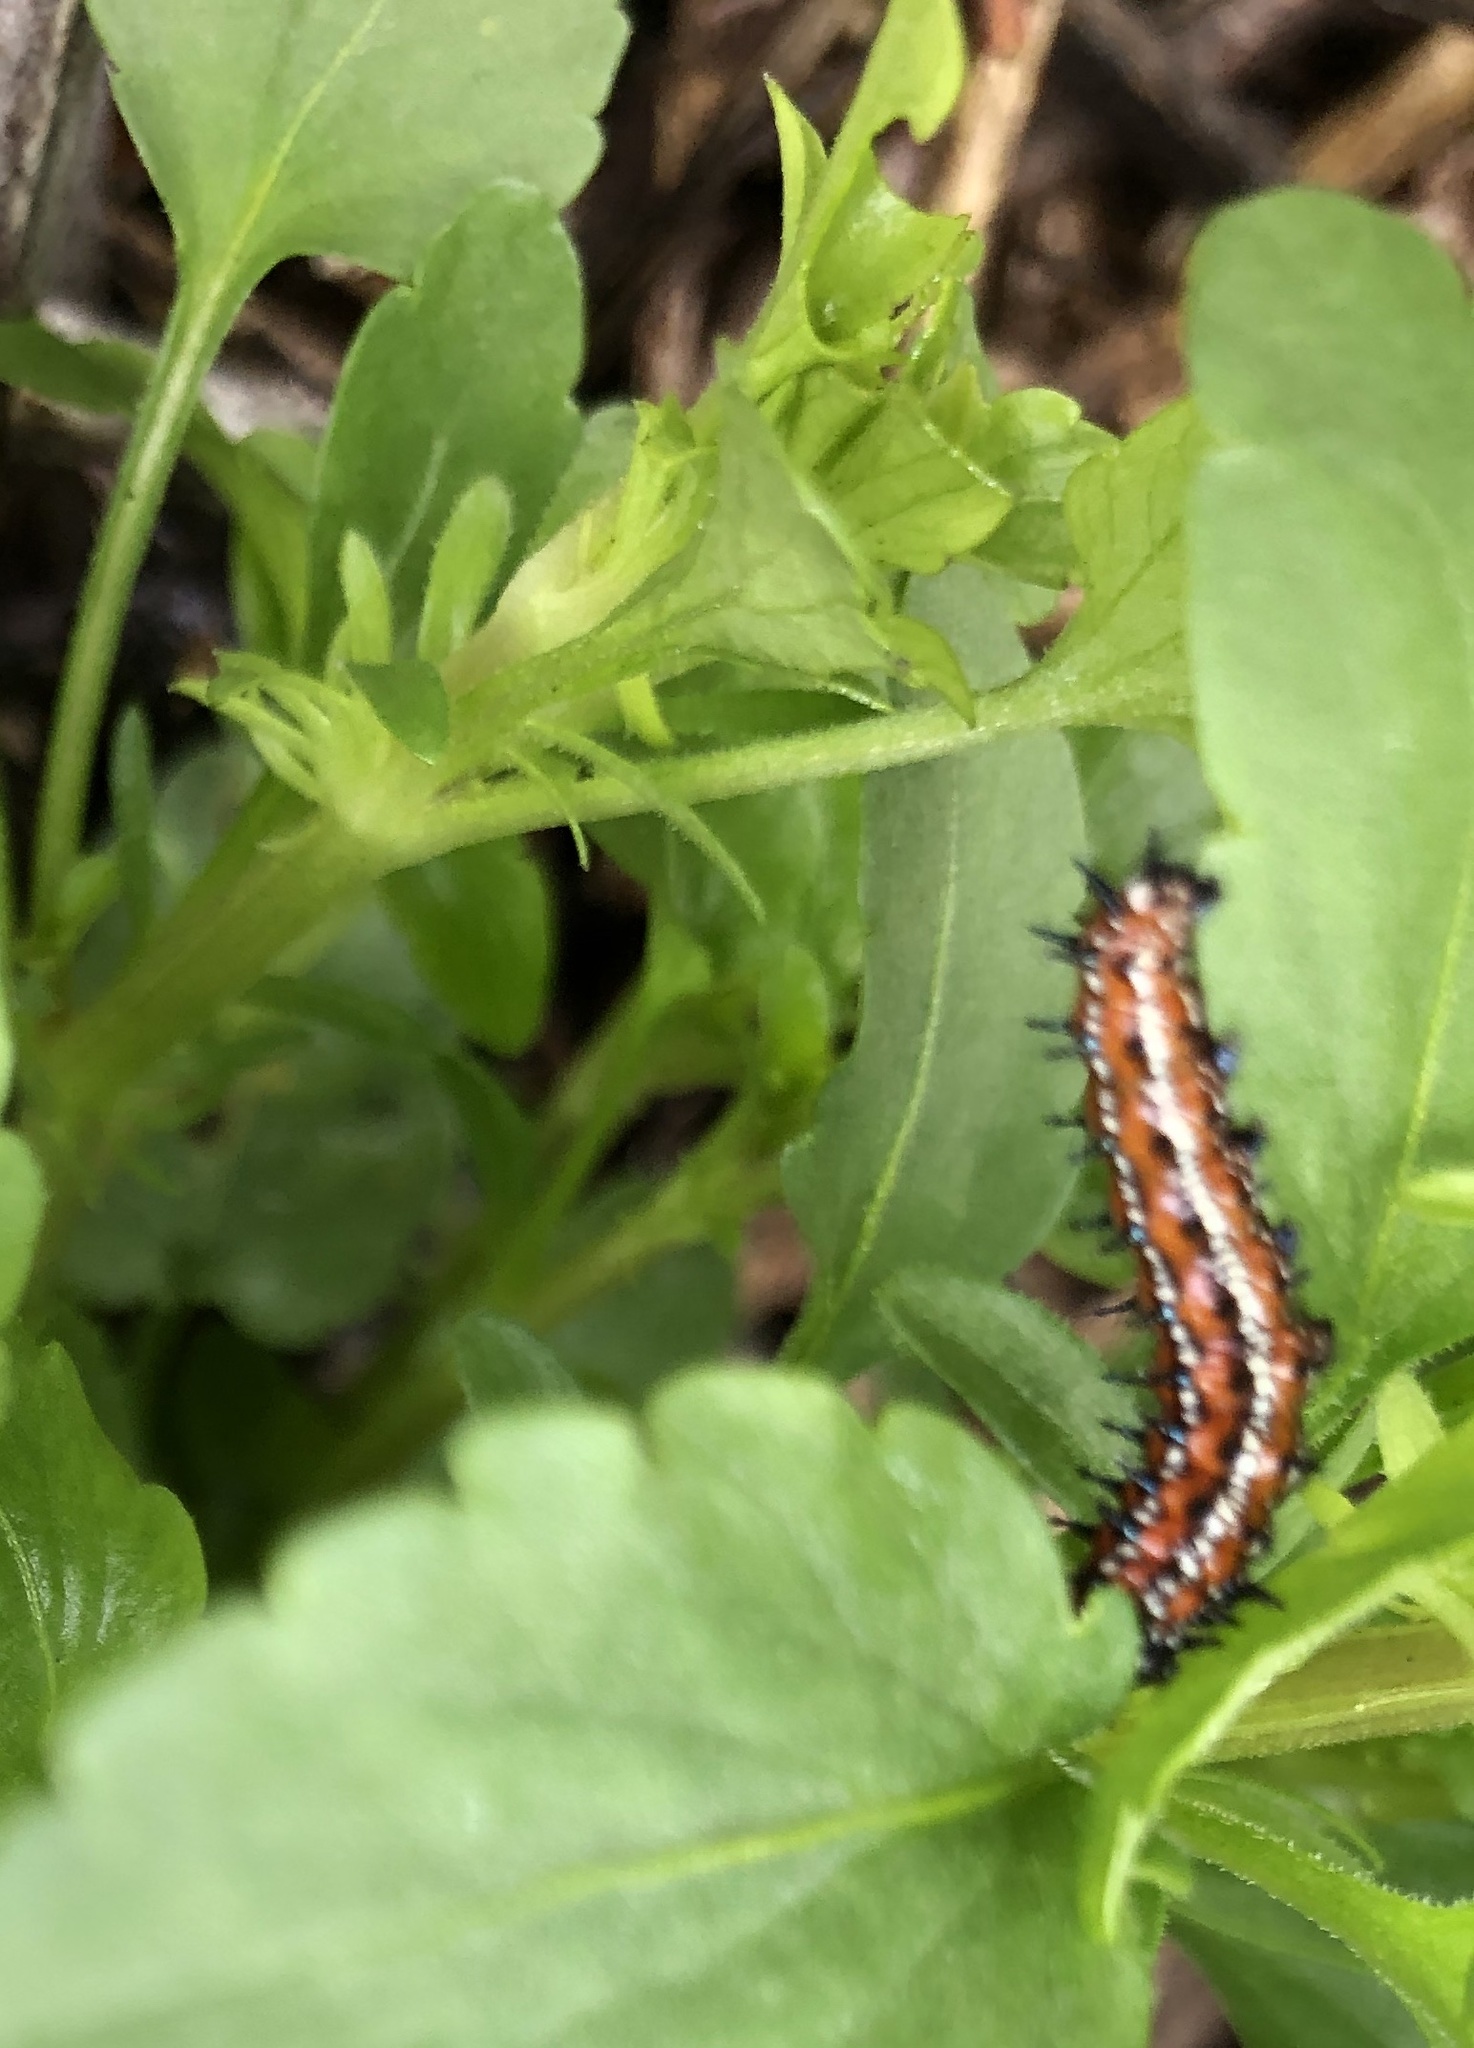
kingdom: Animalia
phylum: Arthropoda
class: Insecta
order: Lepidoptera
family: Nymphalidae
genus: Euptoieta
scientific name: Euptoieta claudia
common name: Variegated fritillary
